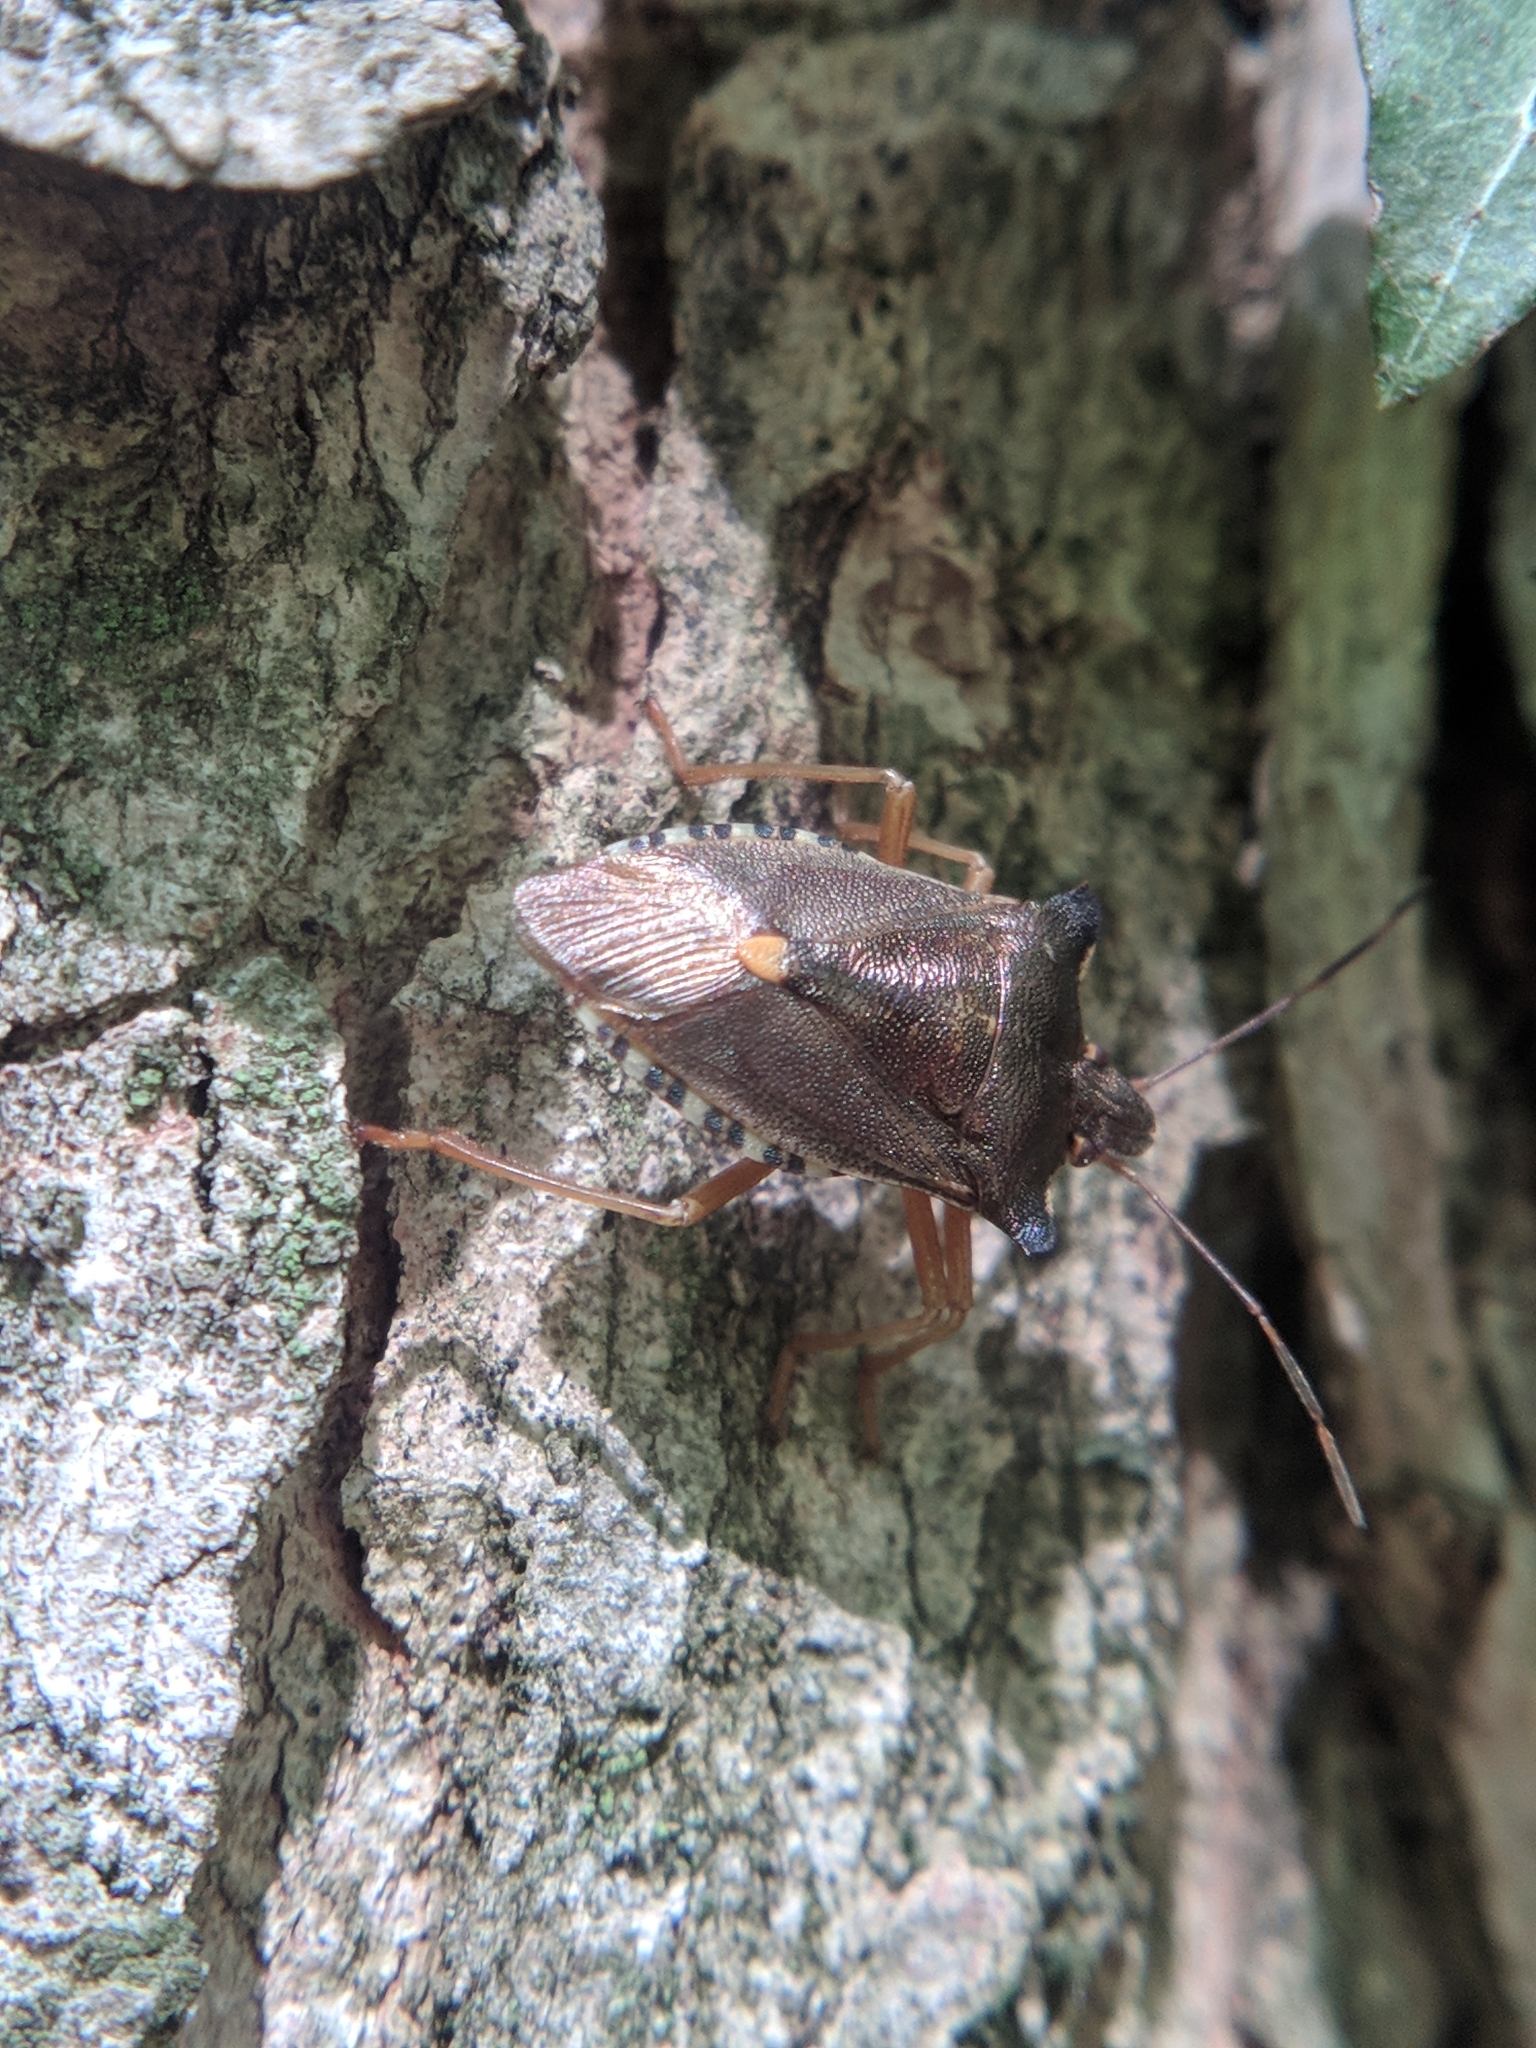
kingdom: Animalia
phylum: Arthropoda
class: Insecta
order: Hemiptera
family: Pentatomidae
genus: Pentatoma
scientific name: Pentatoma rufipes
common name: Forest bug
